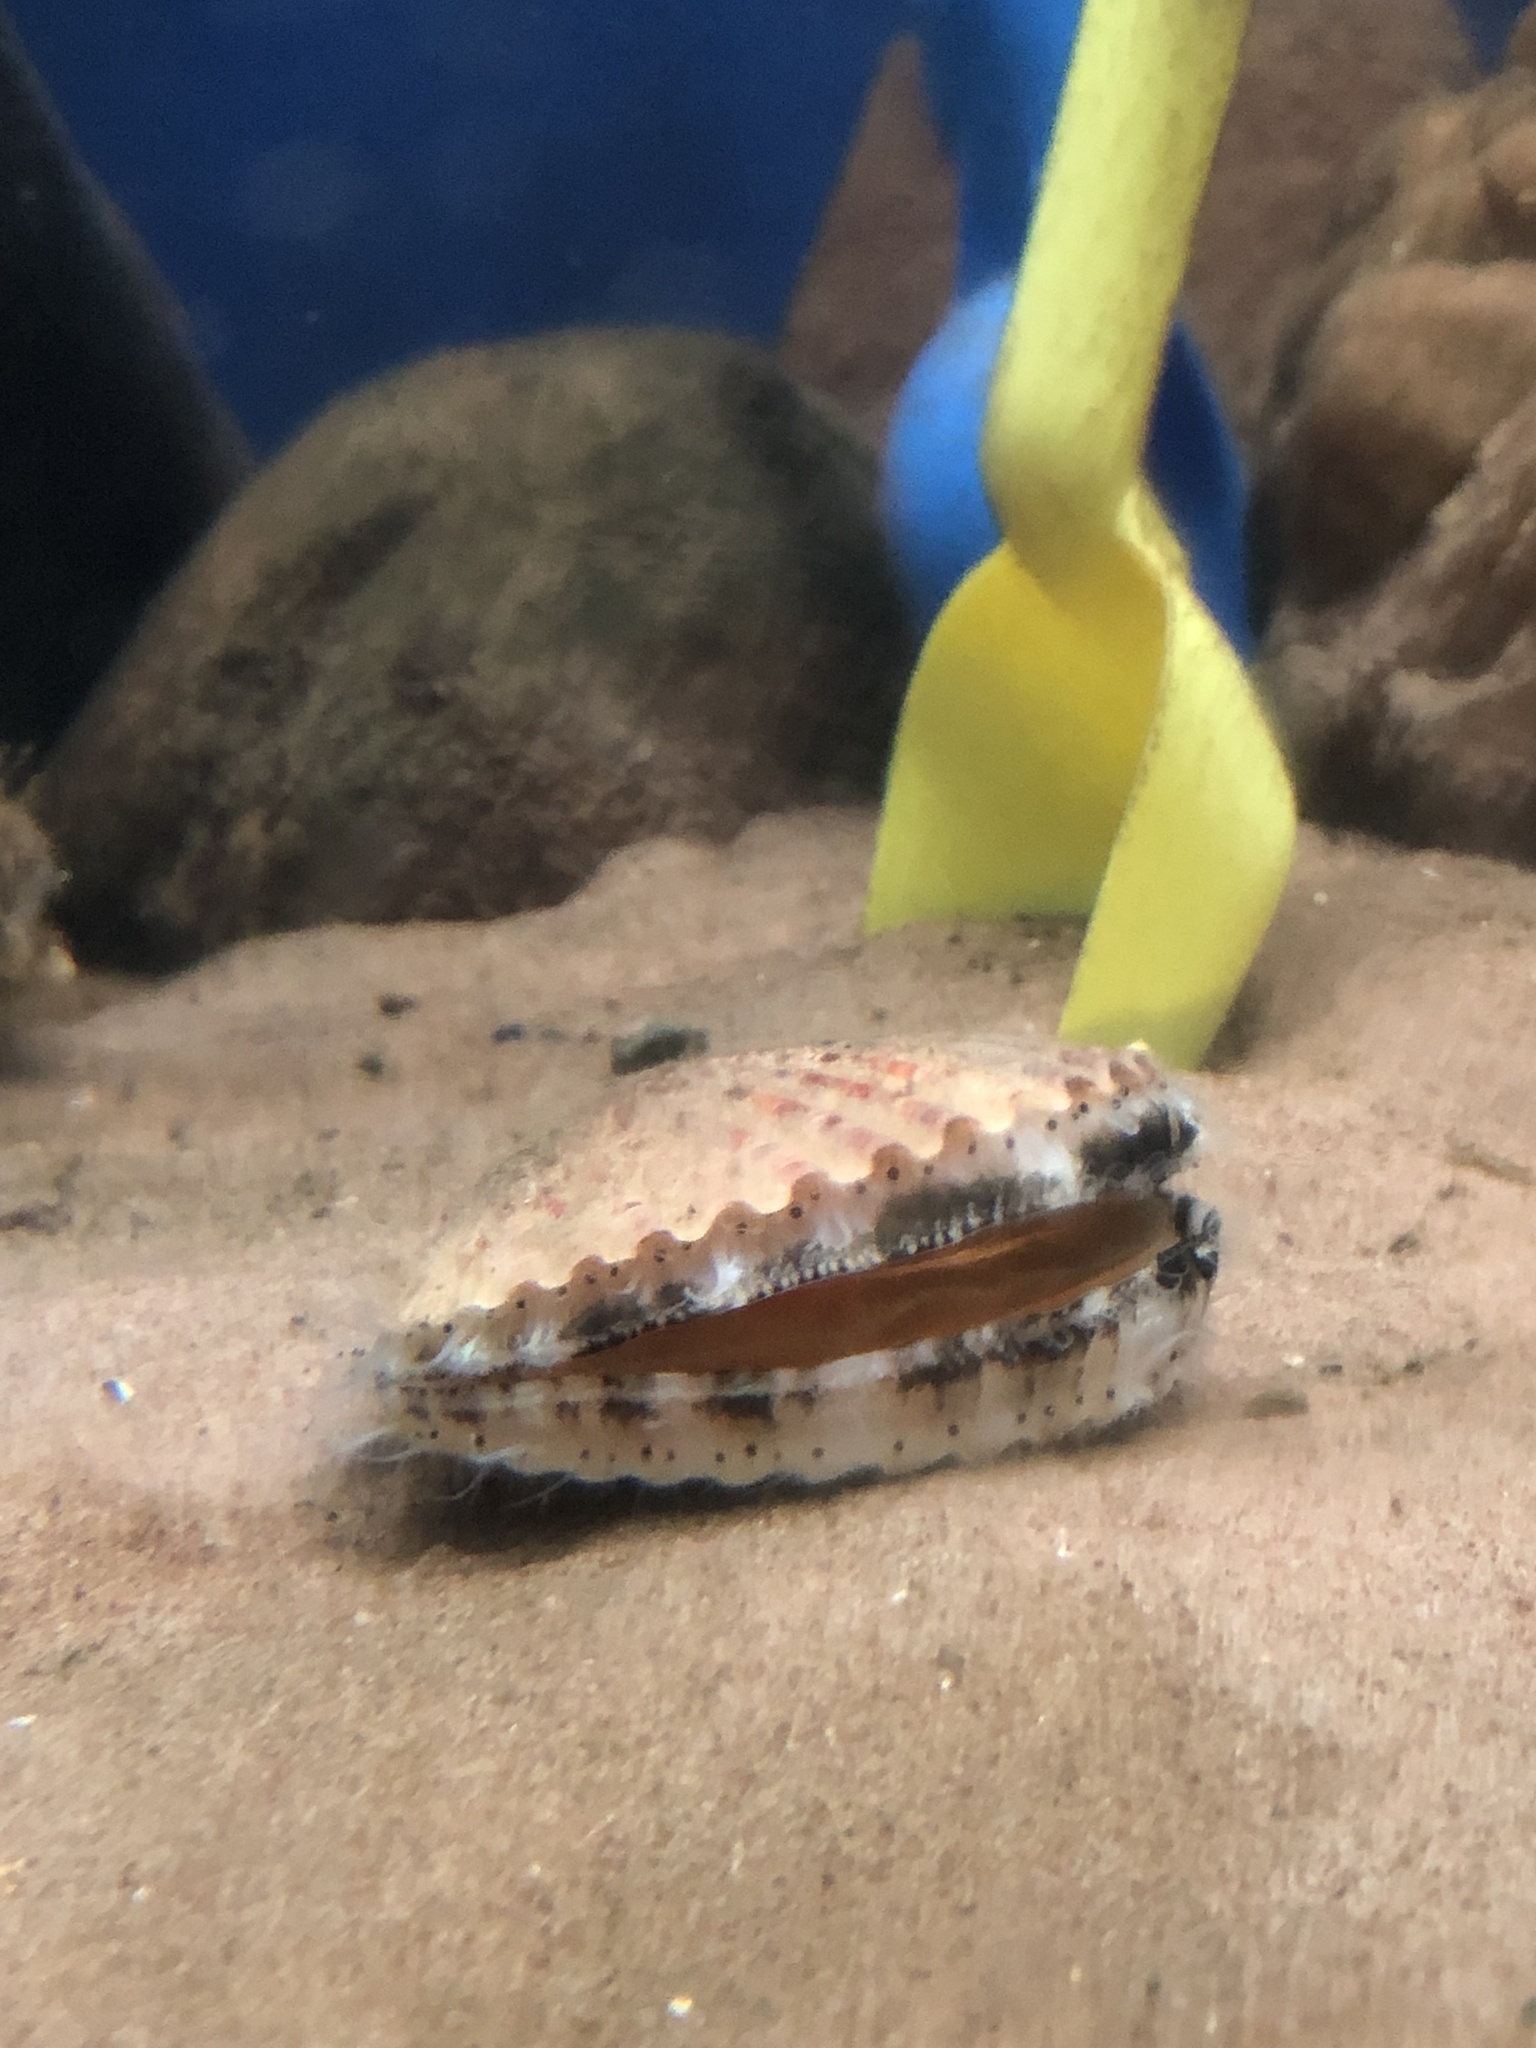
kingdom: Animalia
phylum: Mollusca
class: Bivalvia
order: Pectinida
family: Pectinidae
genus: Aequipecten
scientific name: Aequipecten opercularis
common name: Queen scallop
